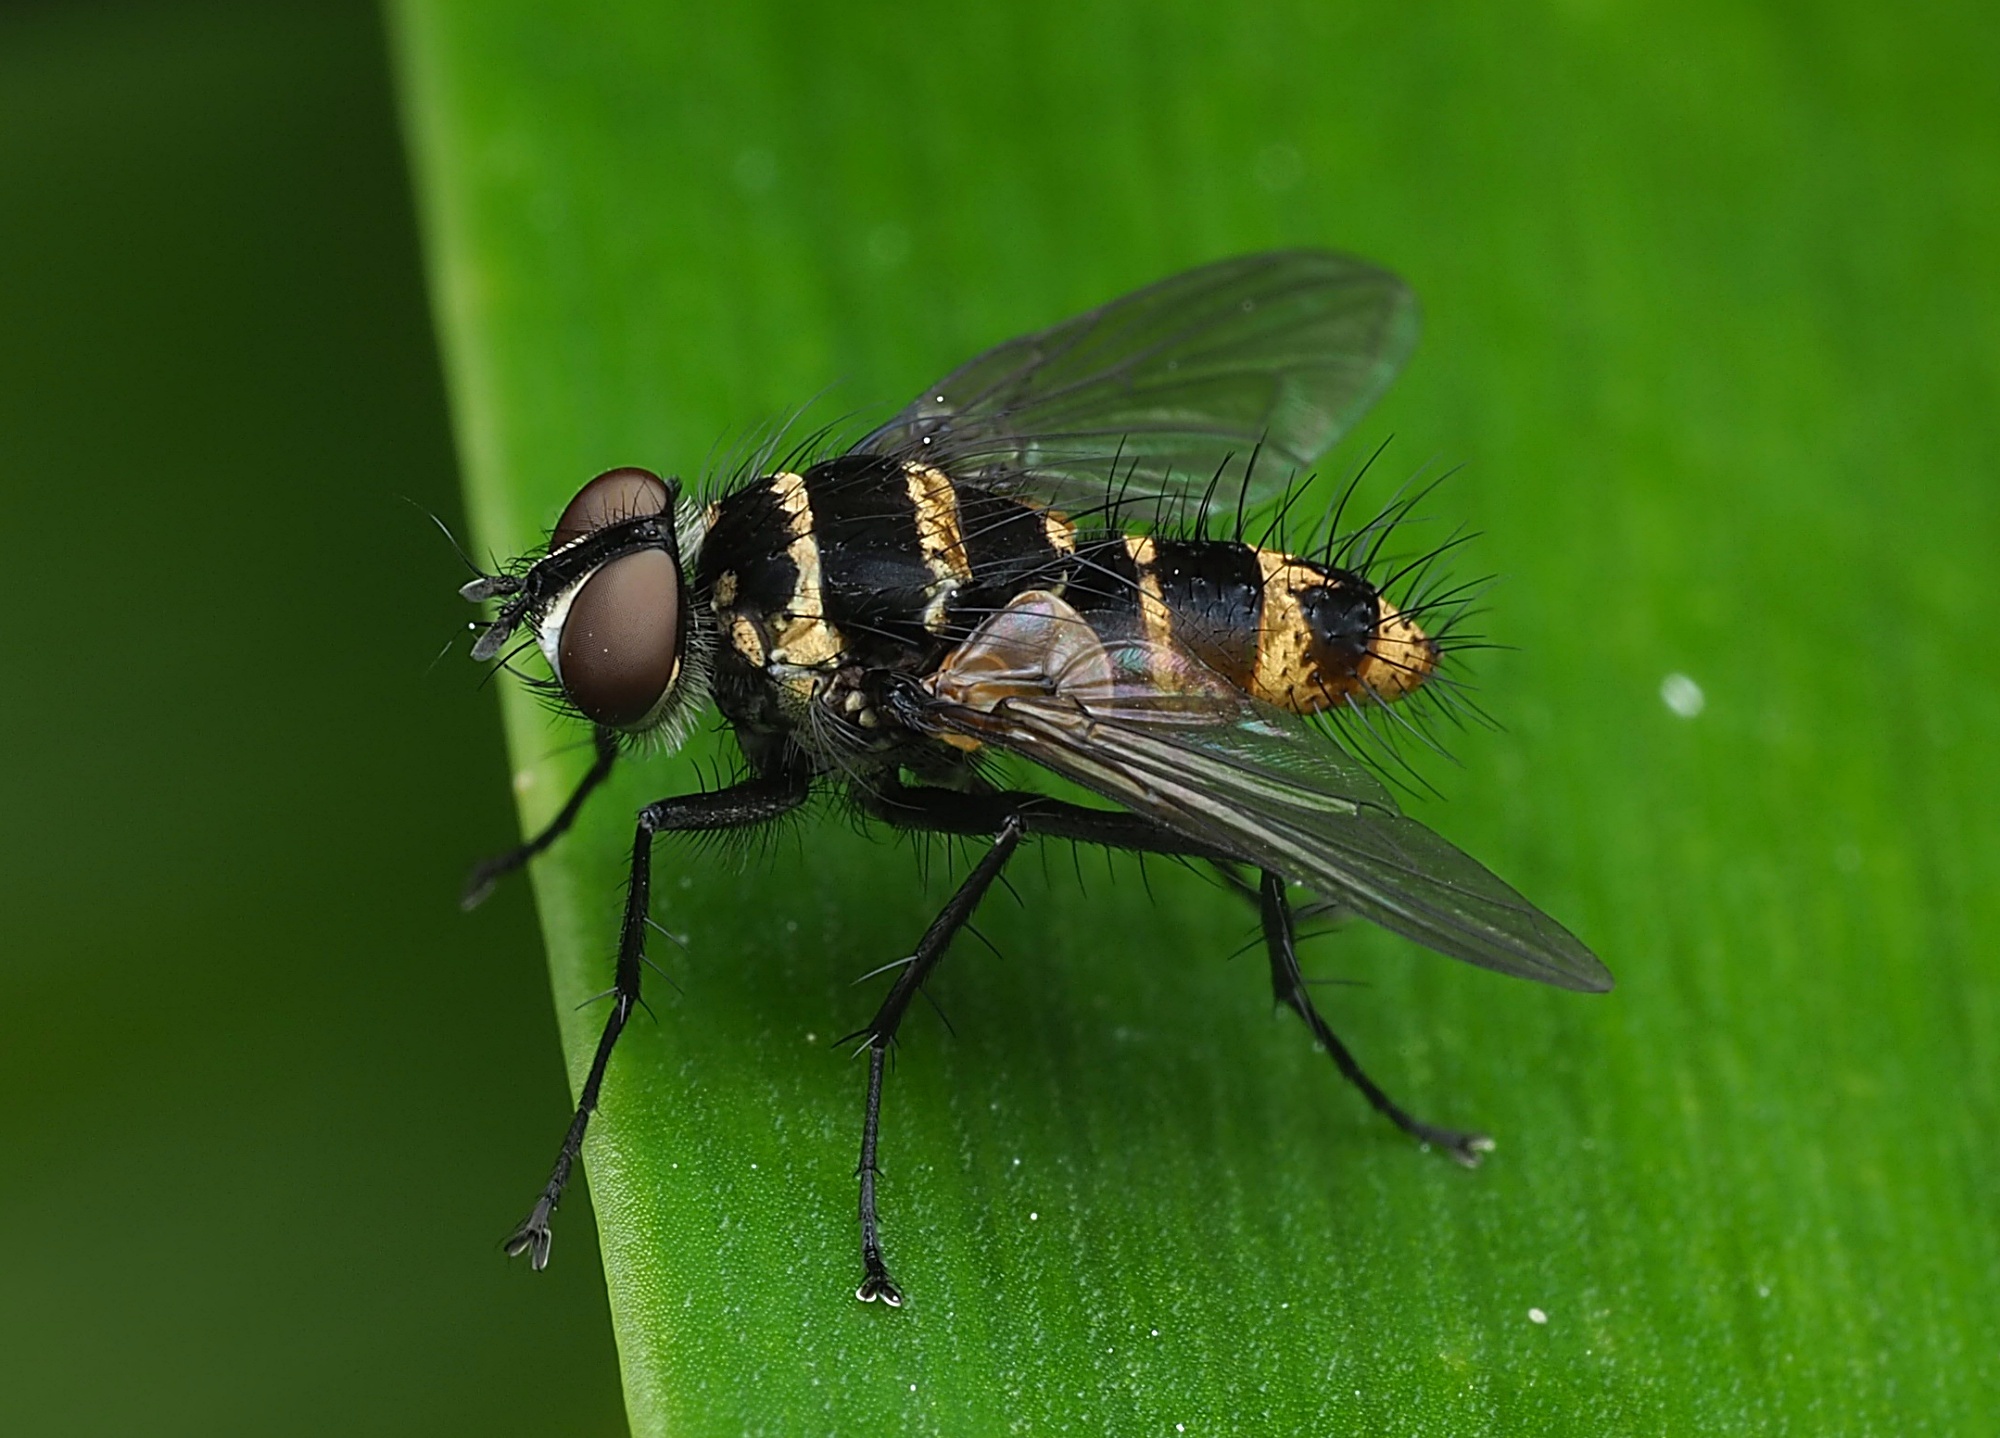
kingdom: Animalia
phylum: Arthropoda
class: Insecta
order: Diptera
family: Tachinidae
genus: Trigonospila
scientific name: Trigonospila brevifacies
